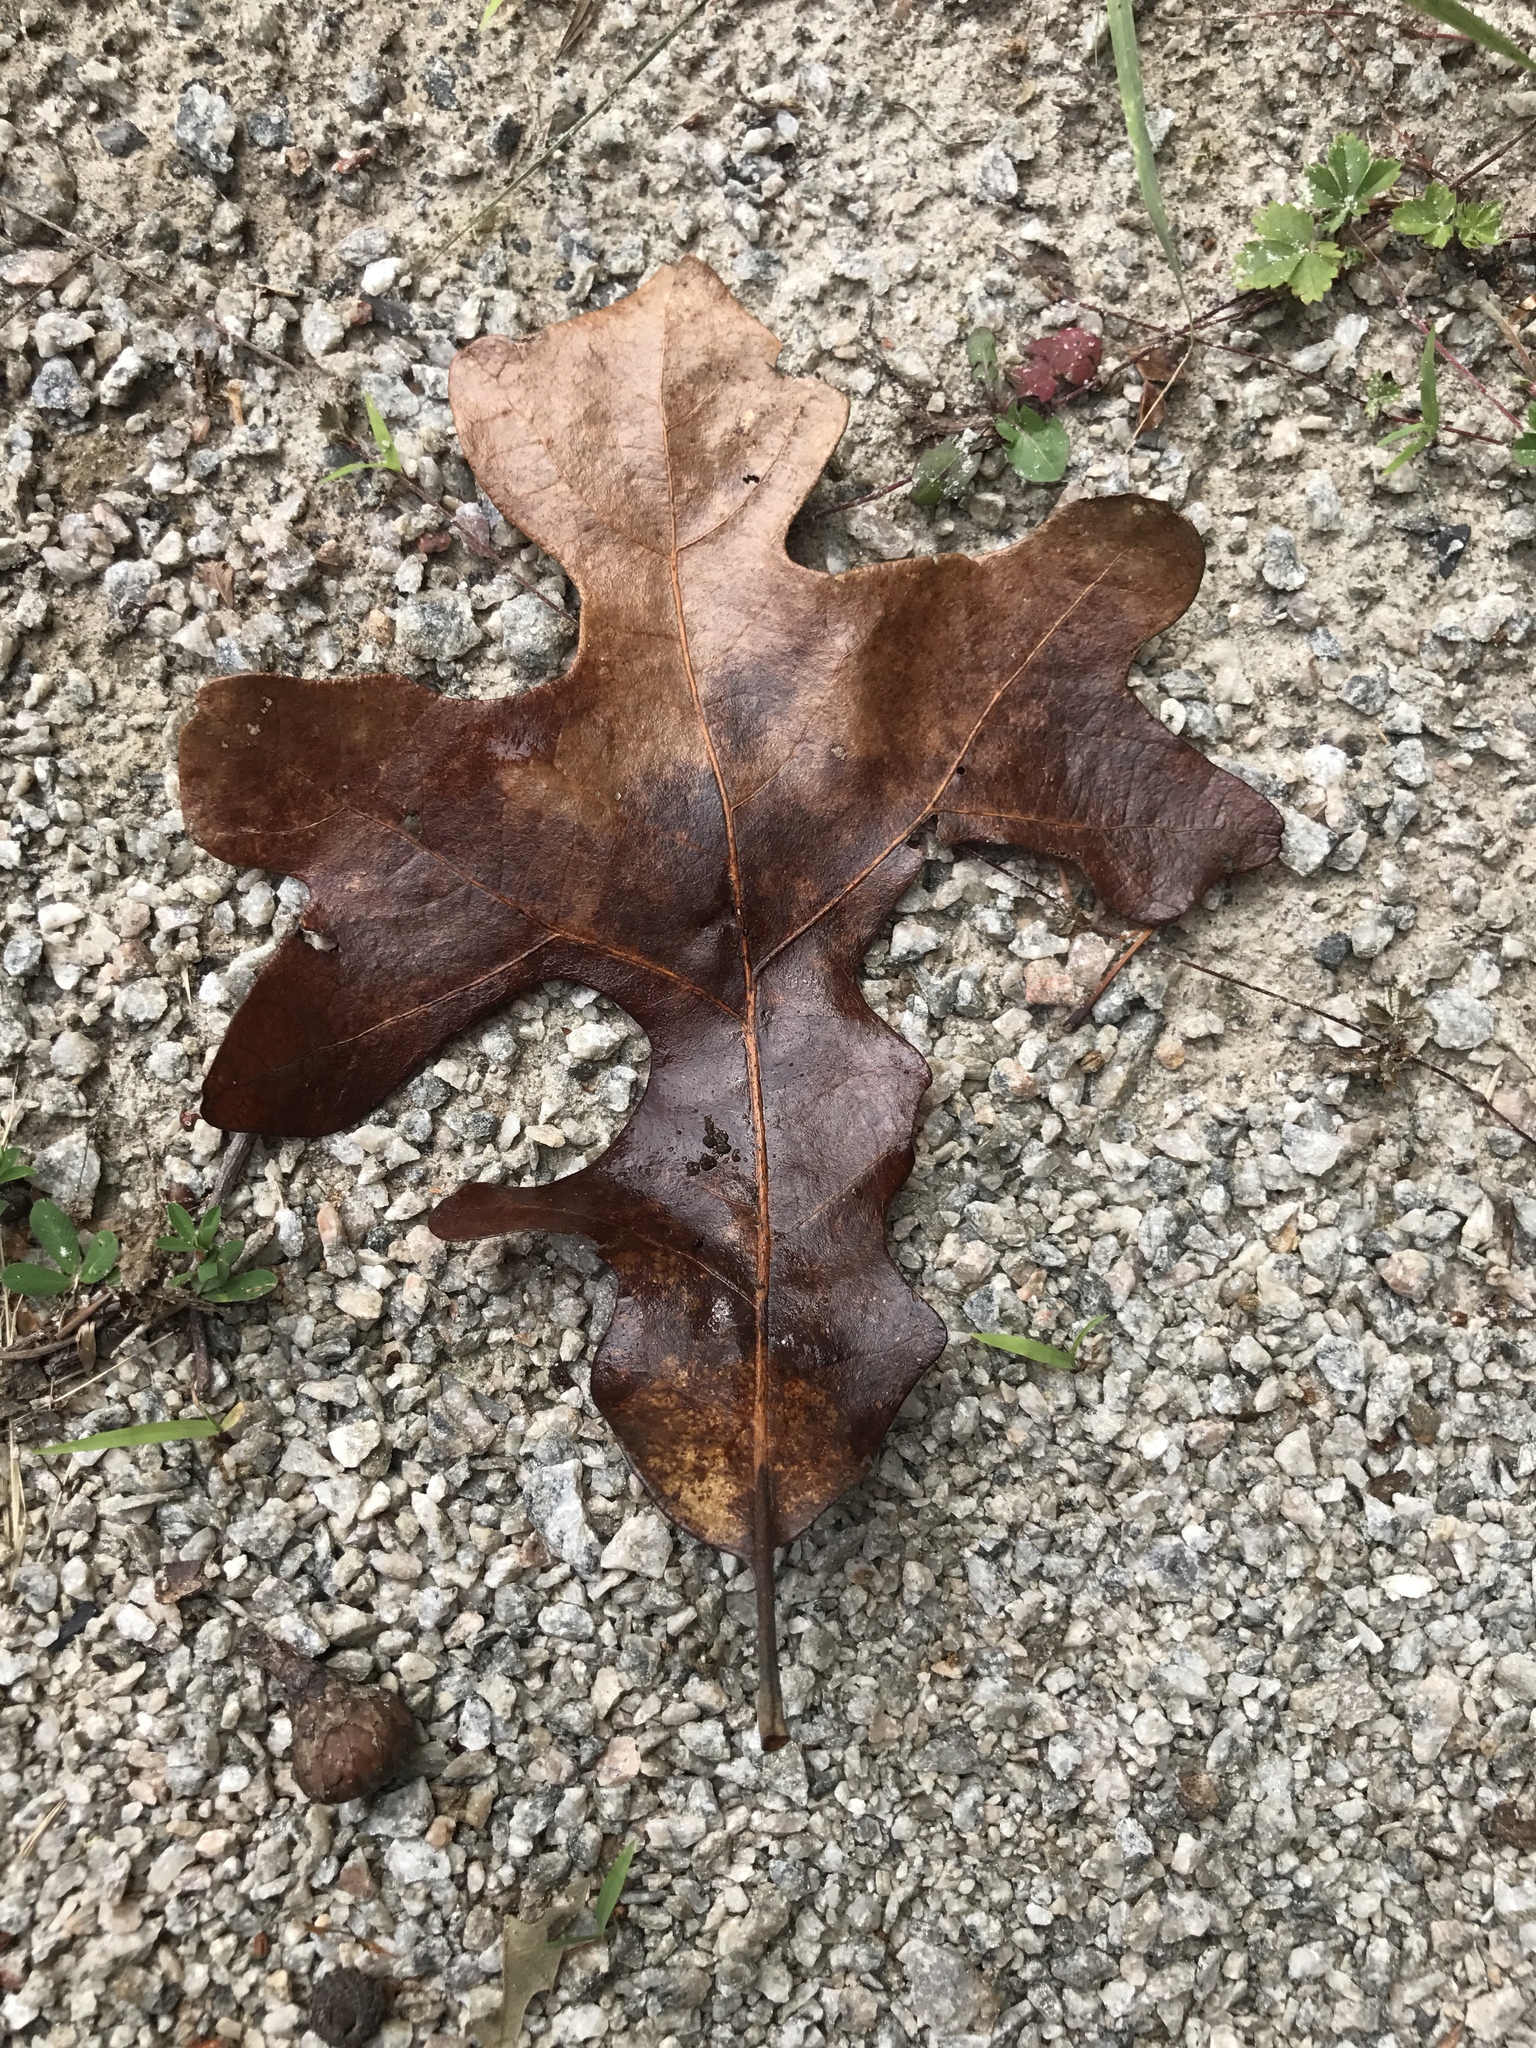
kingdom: Plantae
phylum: Tracheophyta
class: Magnoliopsida
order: Fagales
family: Fagaceae
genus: Quercus
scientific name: Quercus stellata
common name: Post oak
